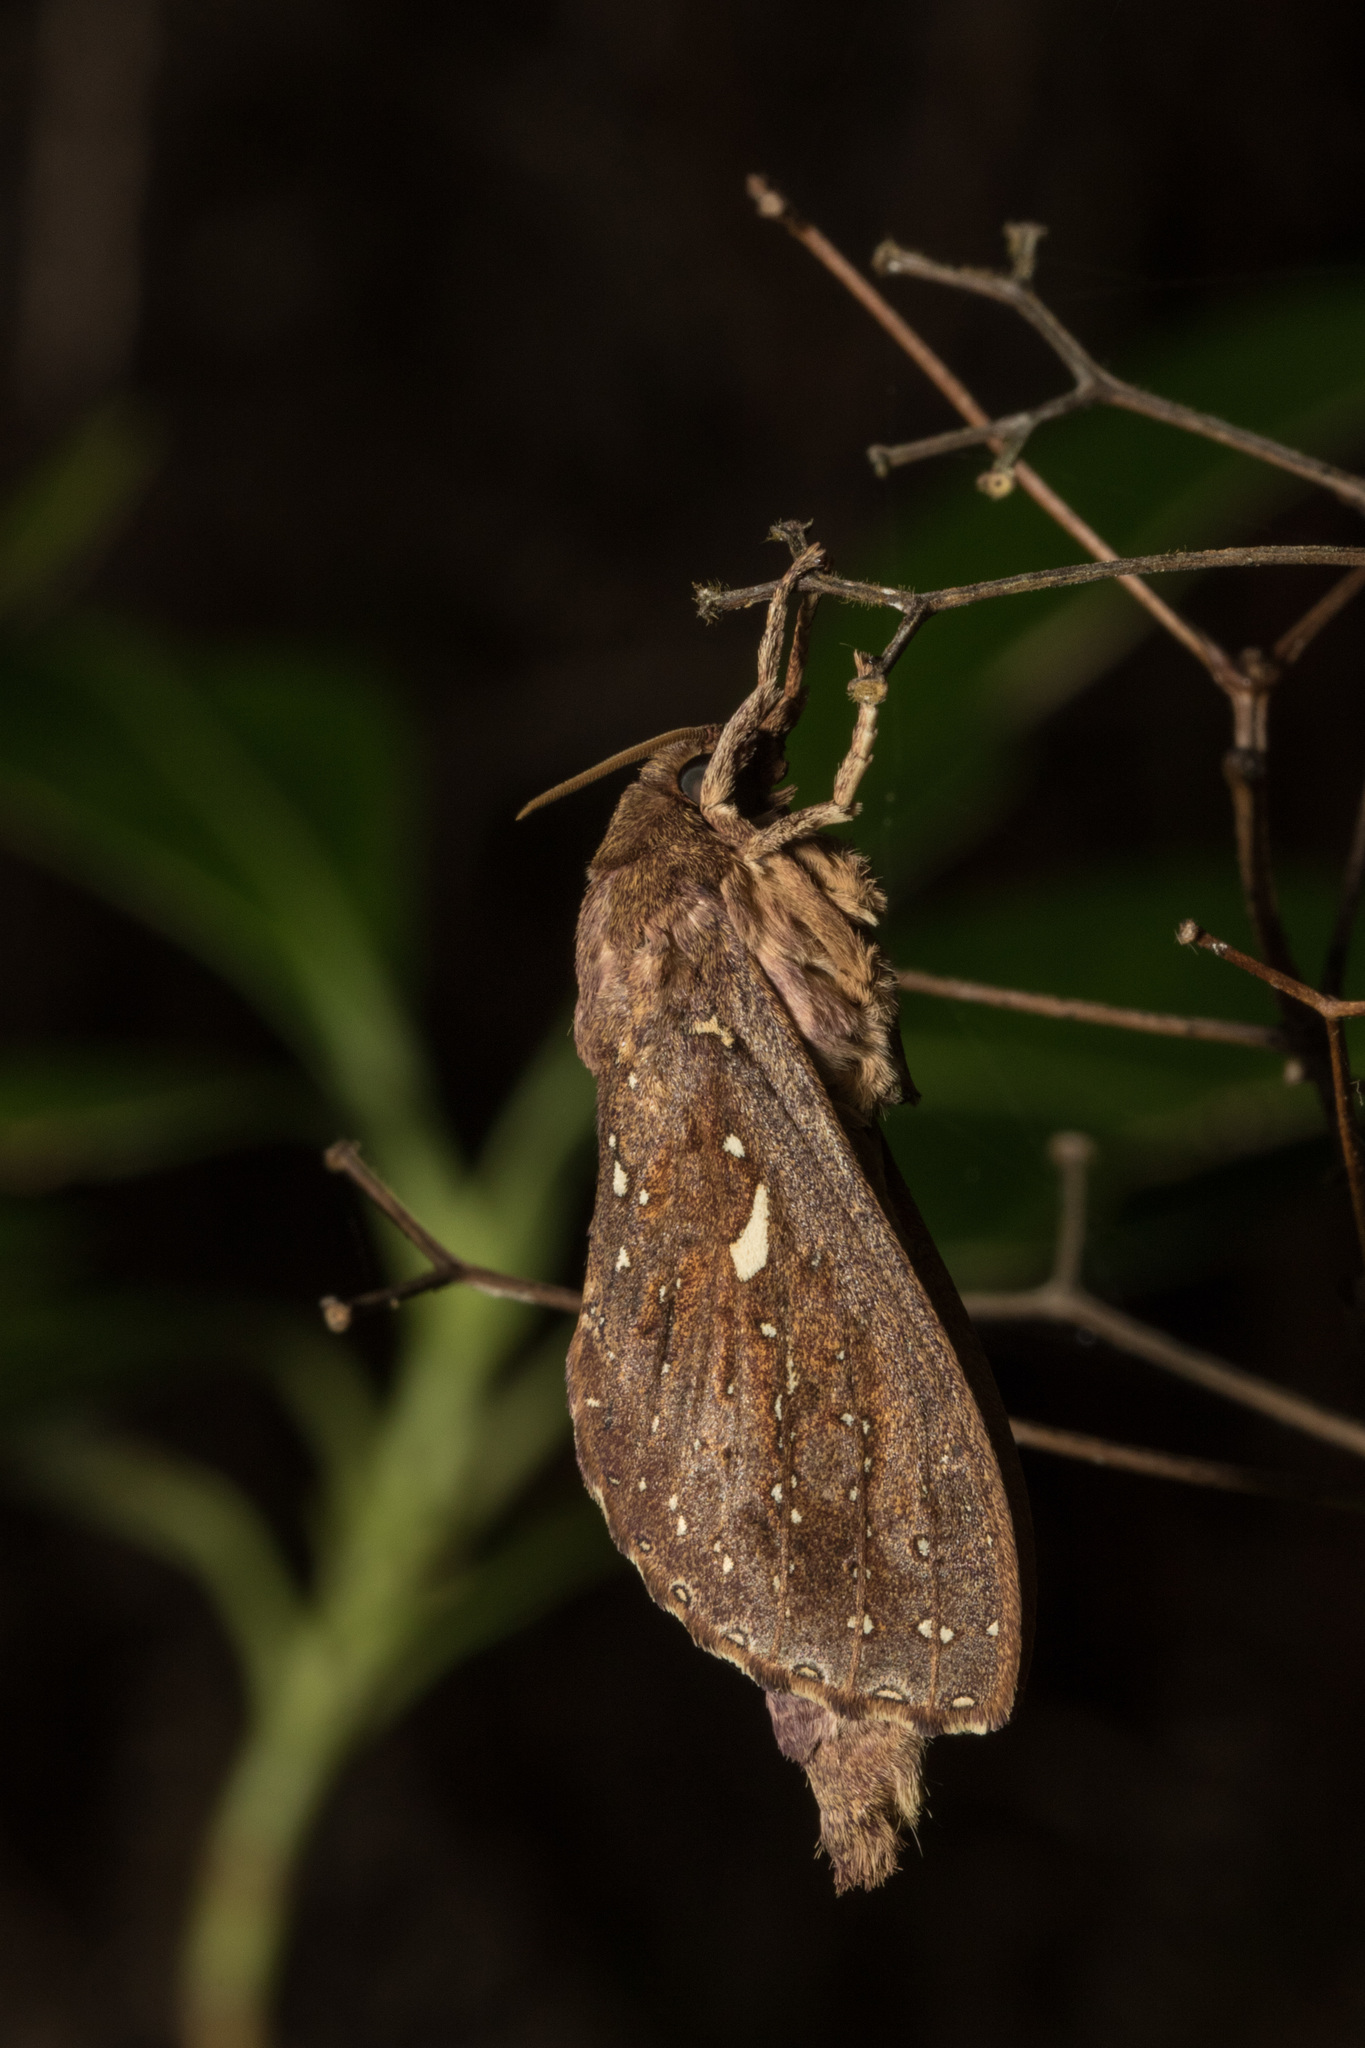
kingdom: Animalia
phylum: Arthropoda
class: Insecta
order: Lepidoptera
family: Hepialidae
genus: Dumbletonius
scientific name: Dumbletonius unimaculata
